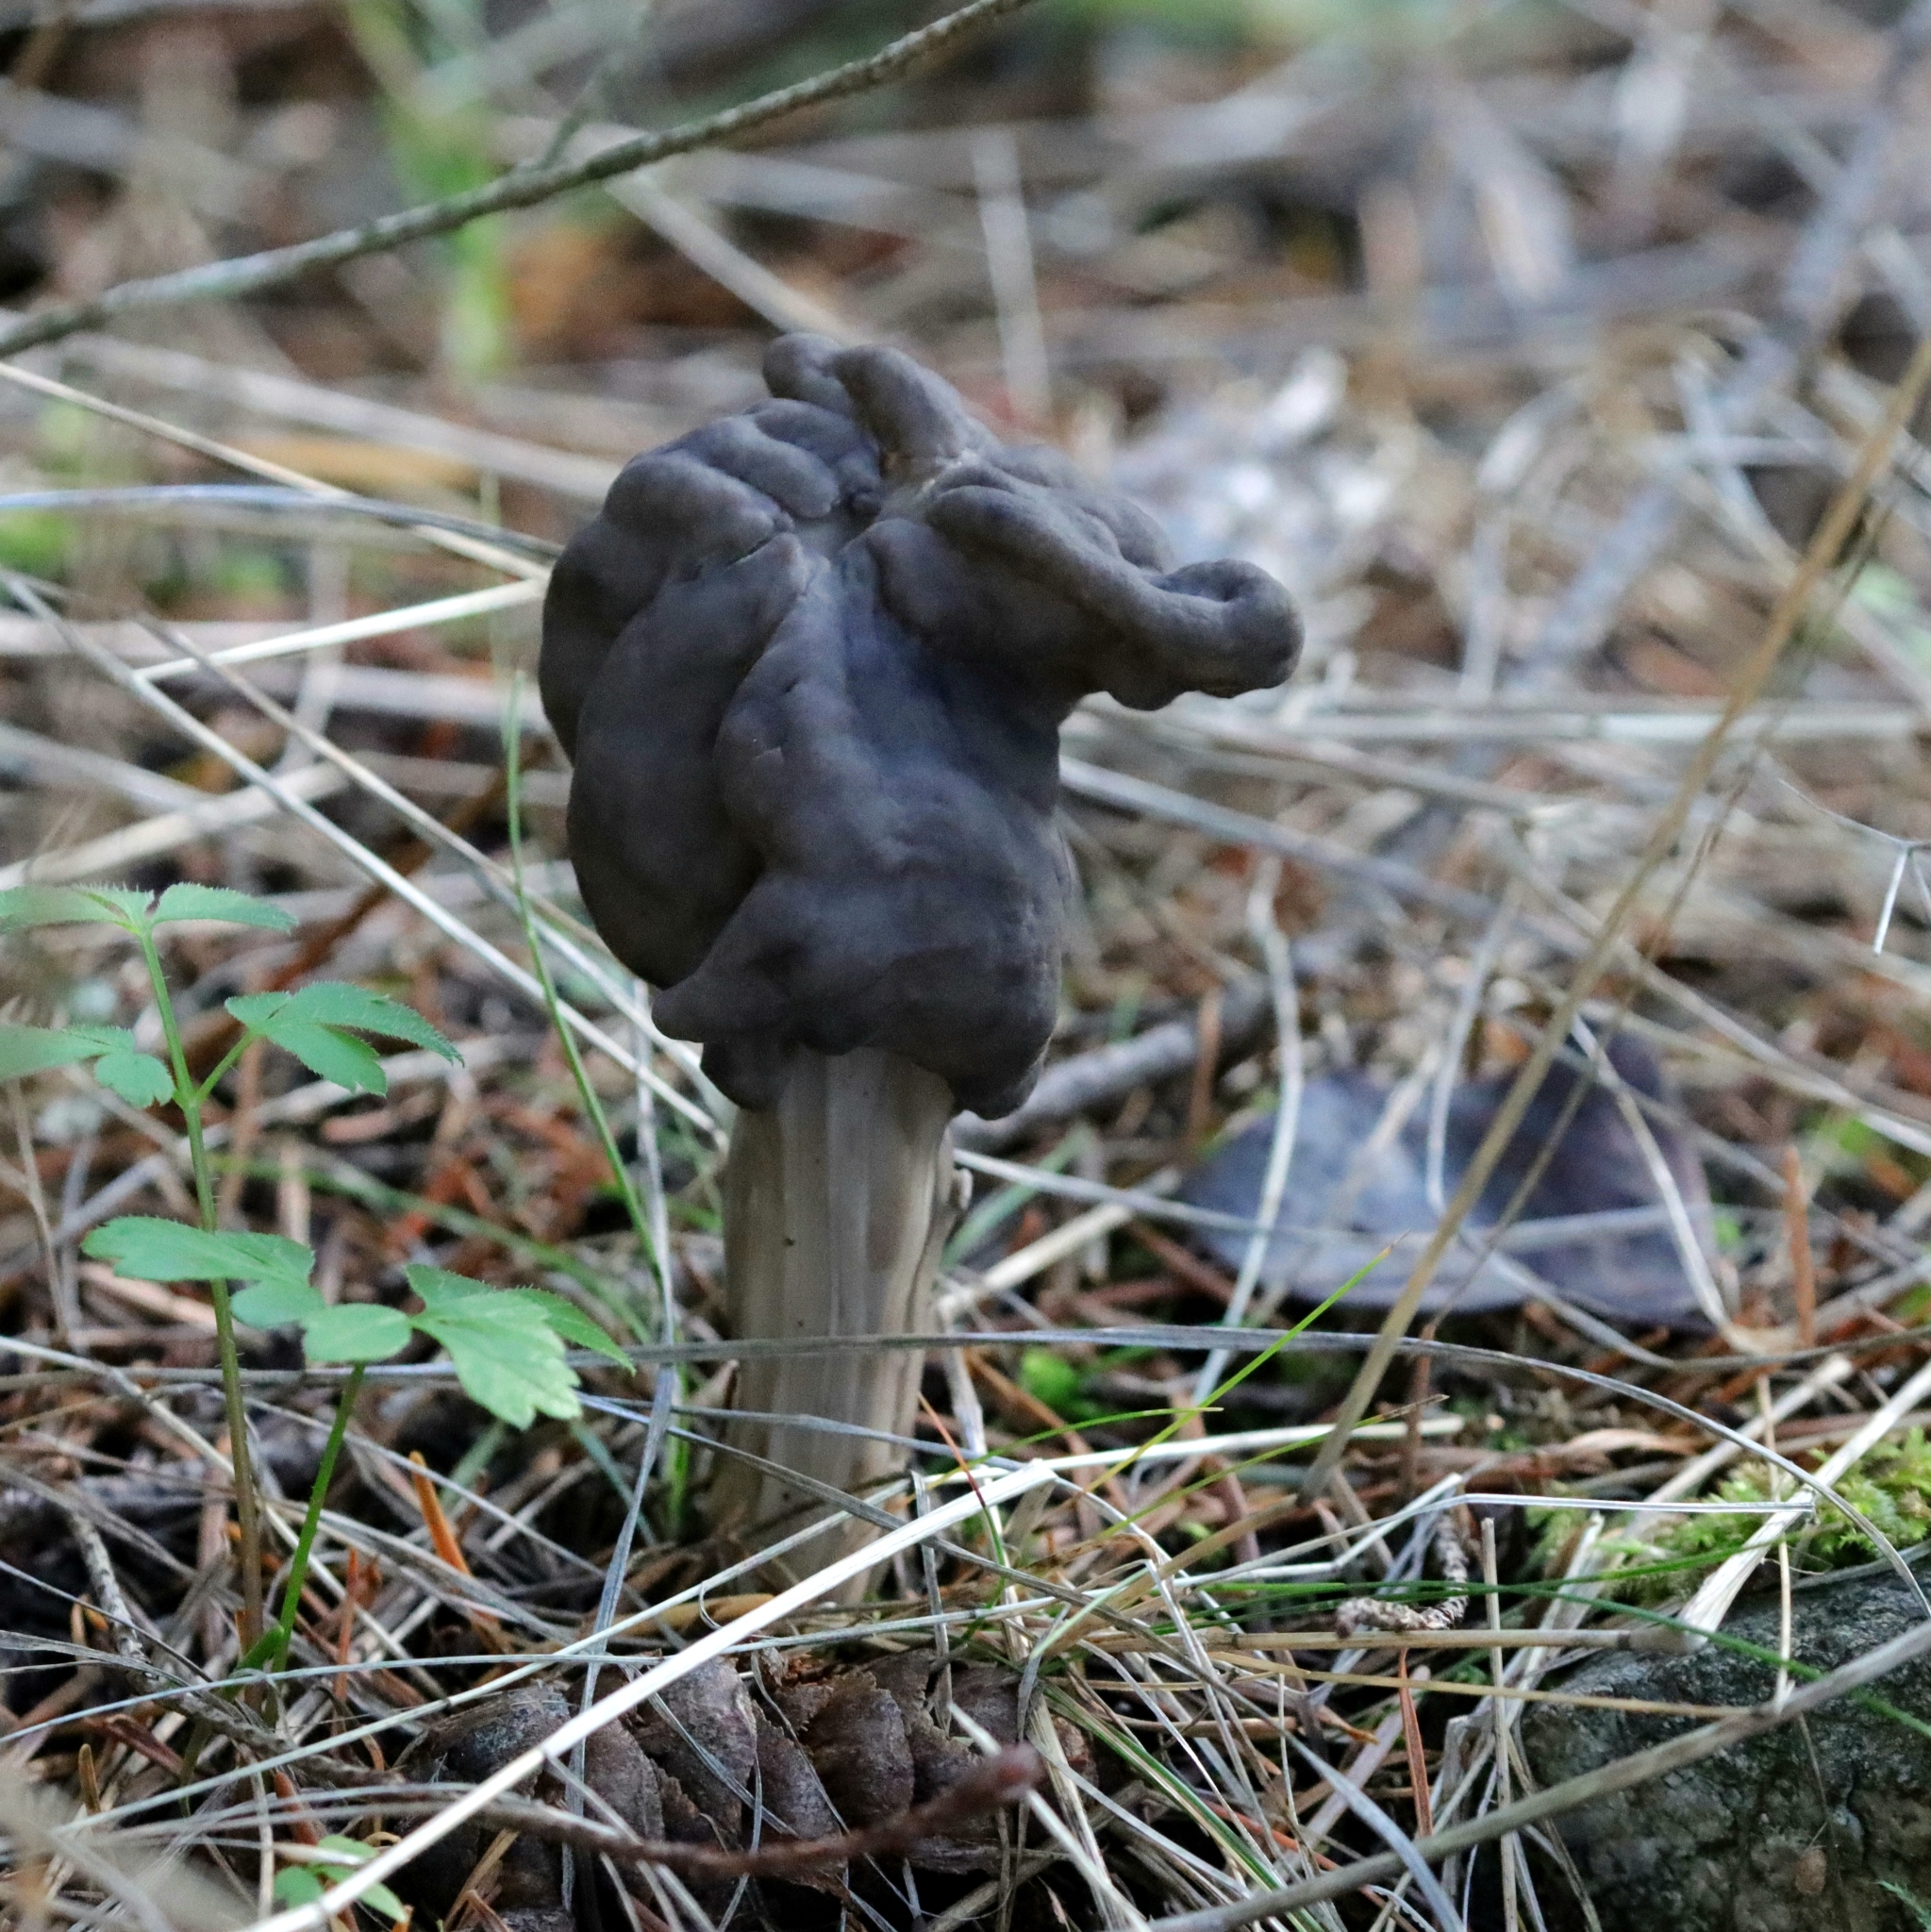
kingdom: Fungi
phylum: Ascomycota
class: Pezizomycetes
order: Pezizales
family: Helvellaceae
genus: Helvella
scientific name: Helvella vespertina
